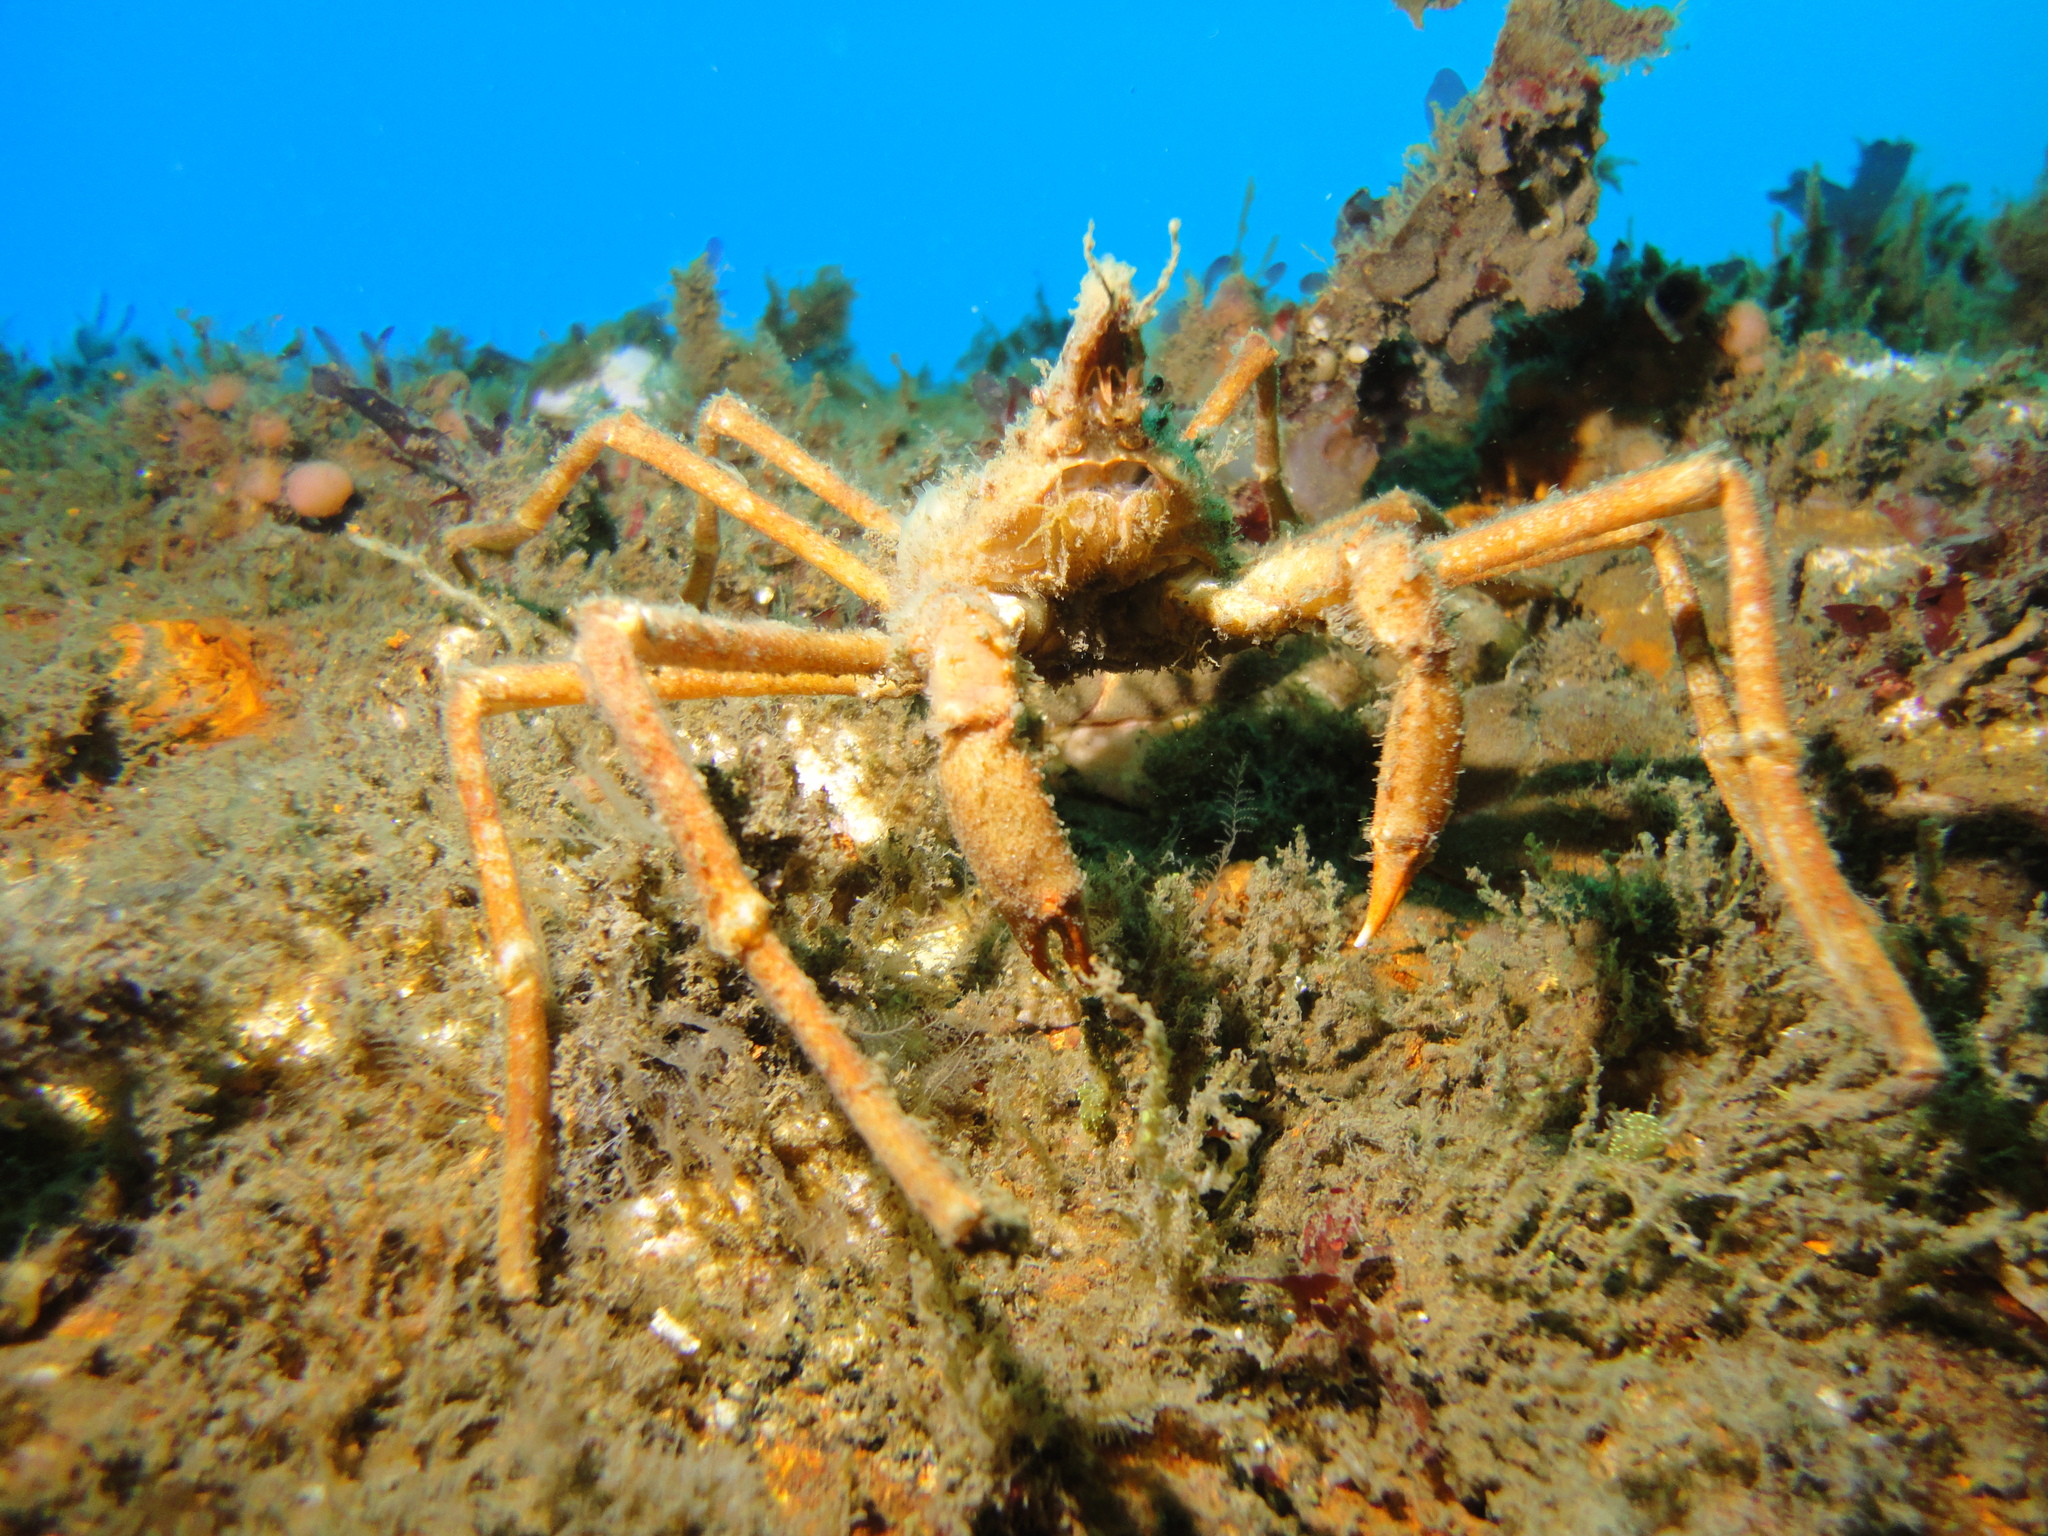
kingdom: Animalia
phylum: Arthropoda
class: Malacostraca
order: Decapoda
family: Inachidae
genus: Eurypodius
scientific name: Eurypodius latreillii
